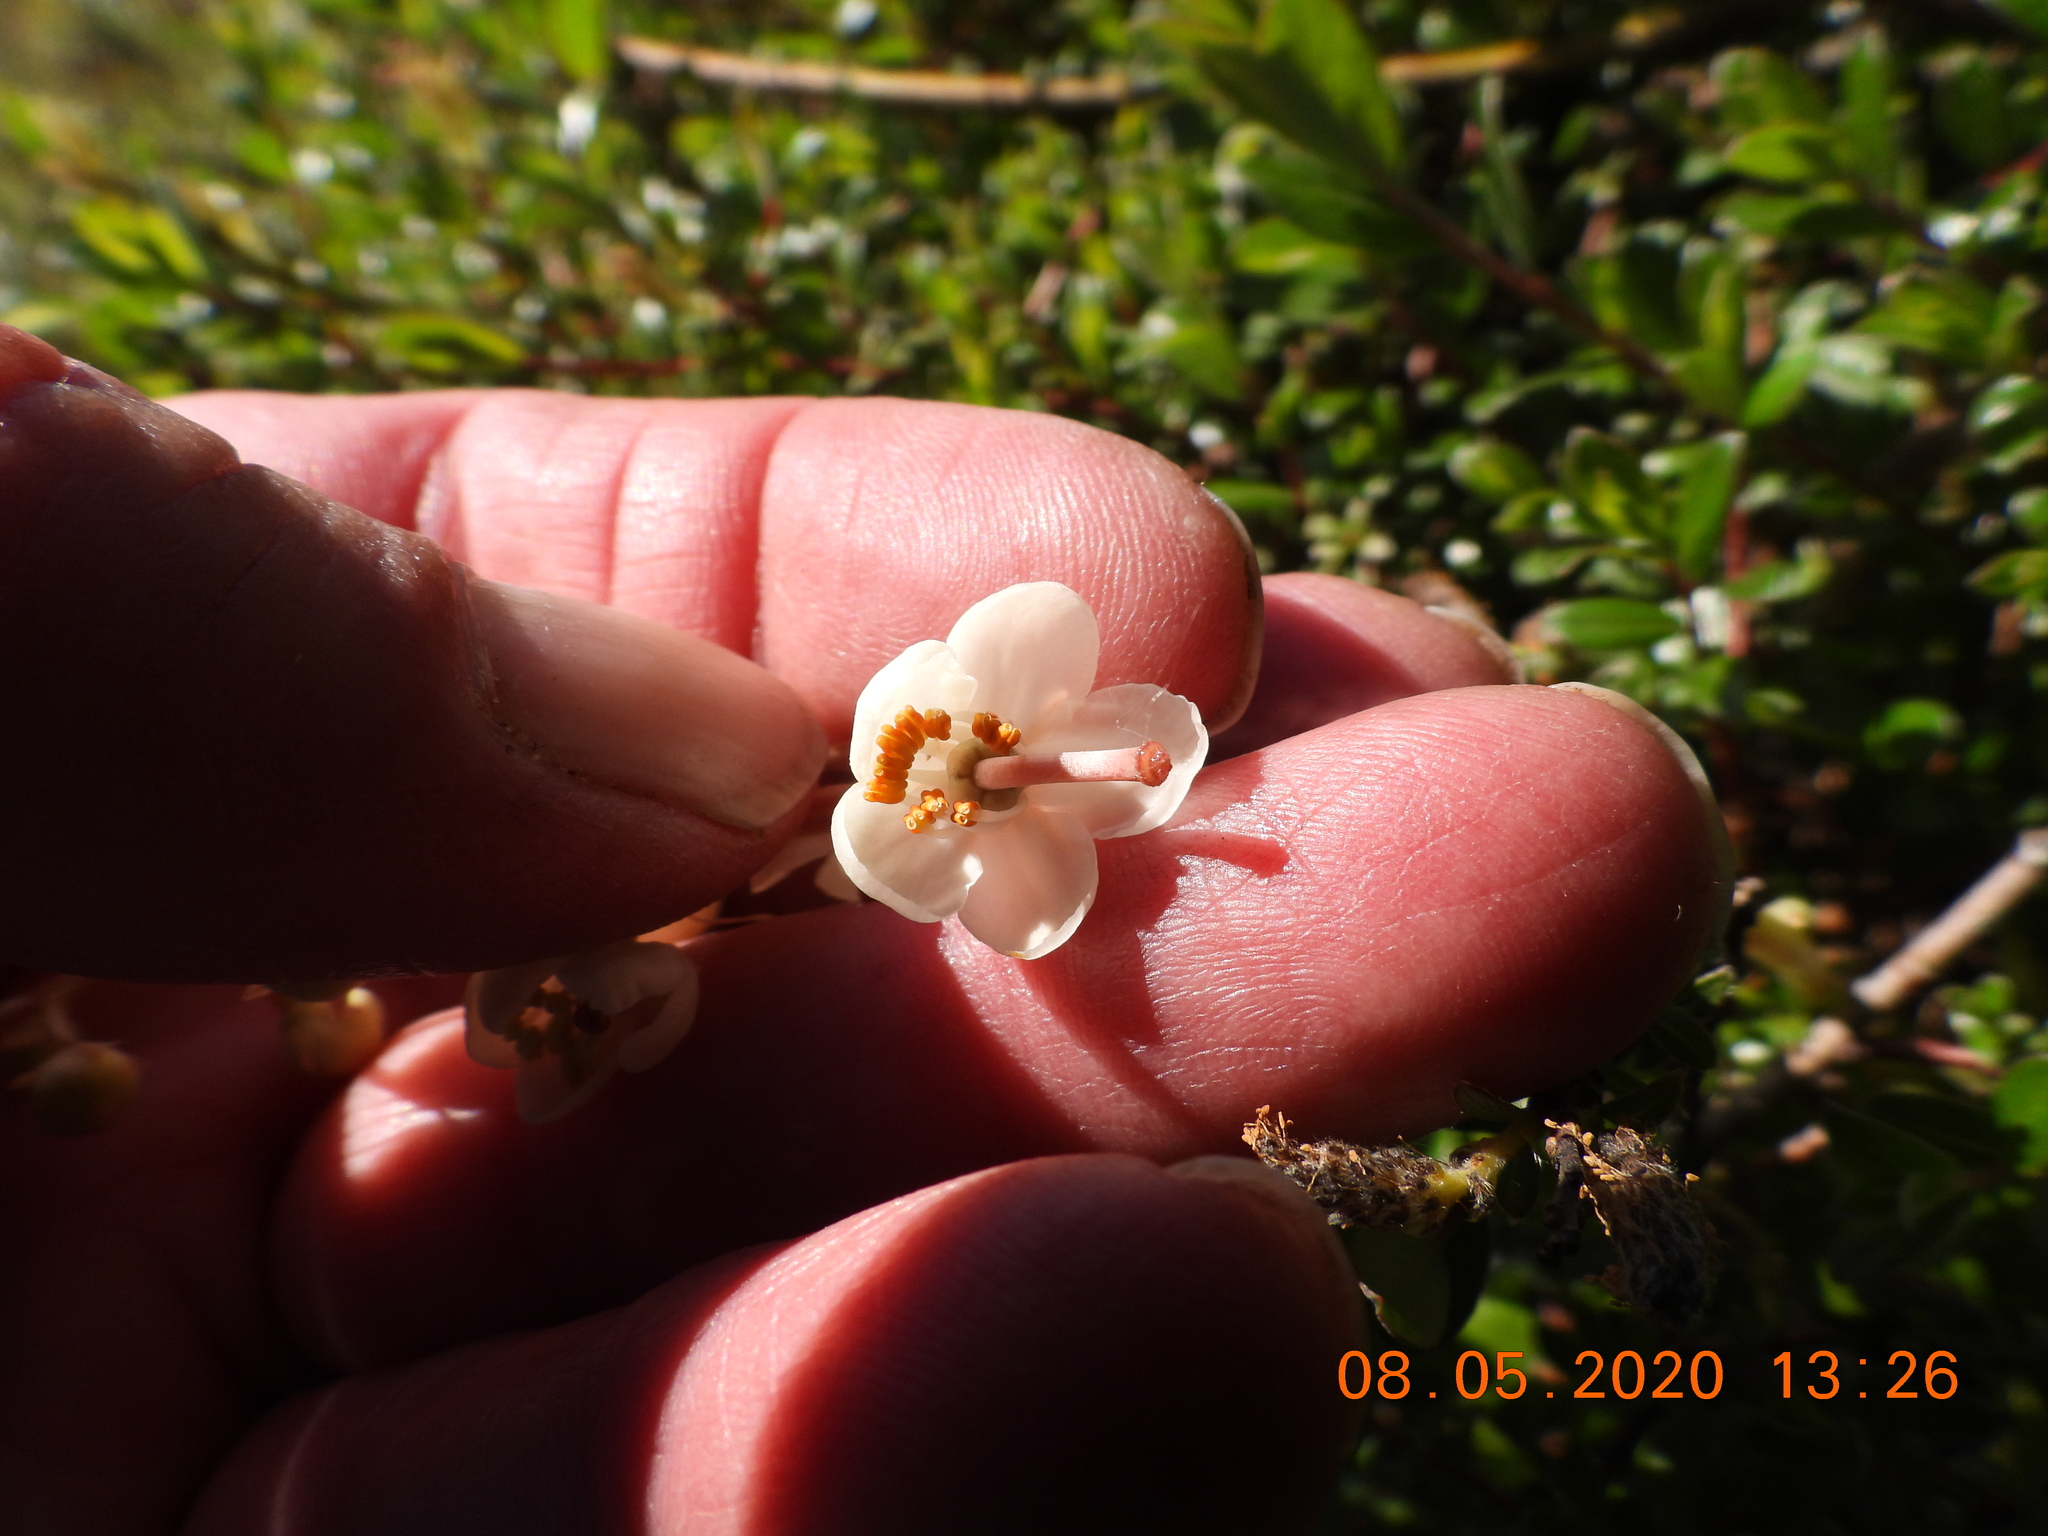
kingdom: Plantae
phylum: Tracheophyta
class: Magnoliopsida
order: Ericales
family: Ericaceae
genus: Pyrola
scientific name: Pyrola rotundifolia
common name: Round-leaved wintergreen
